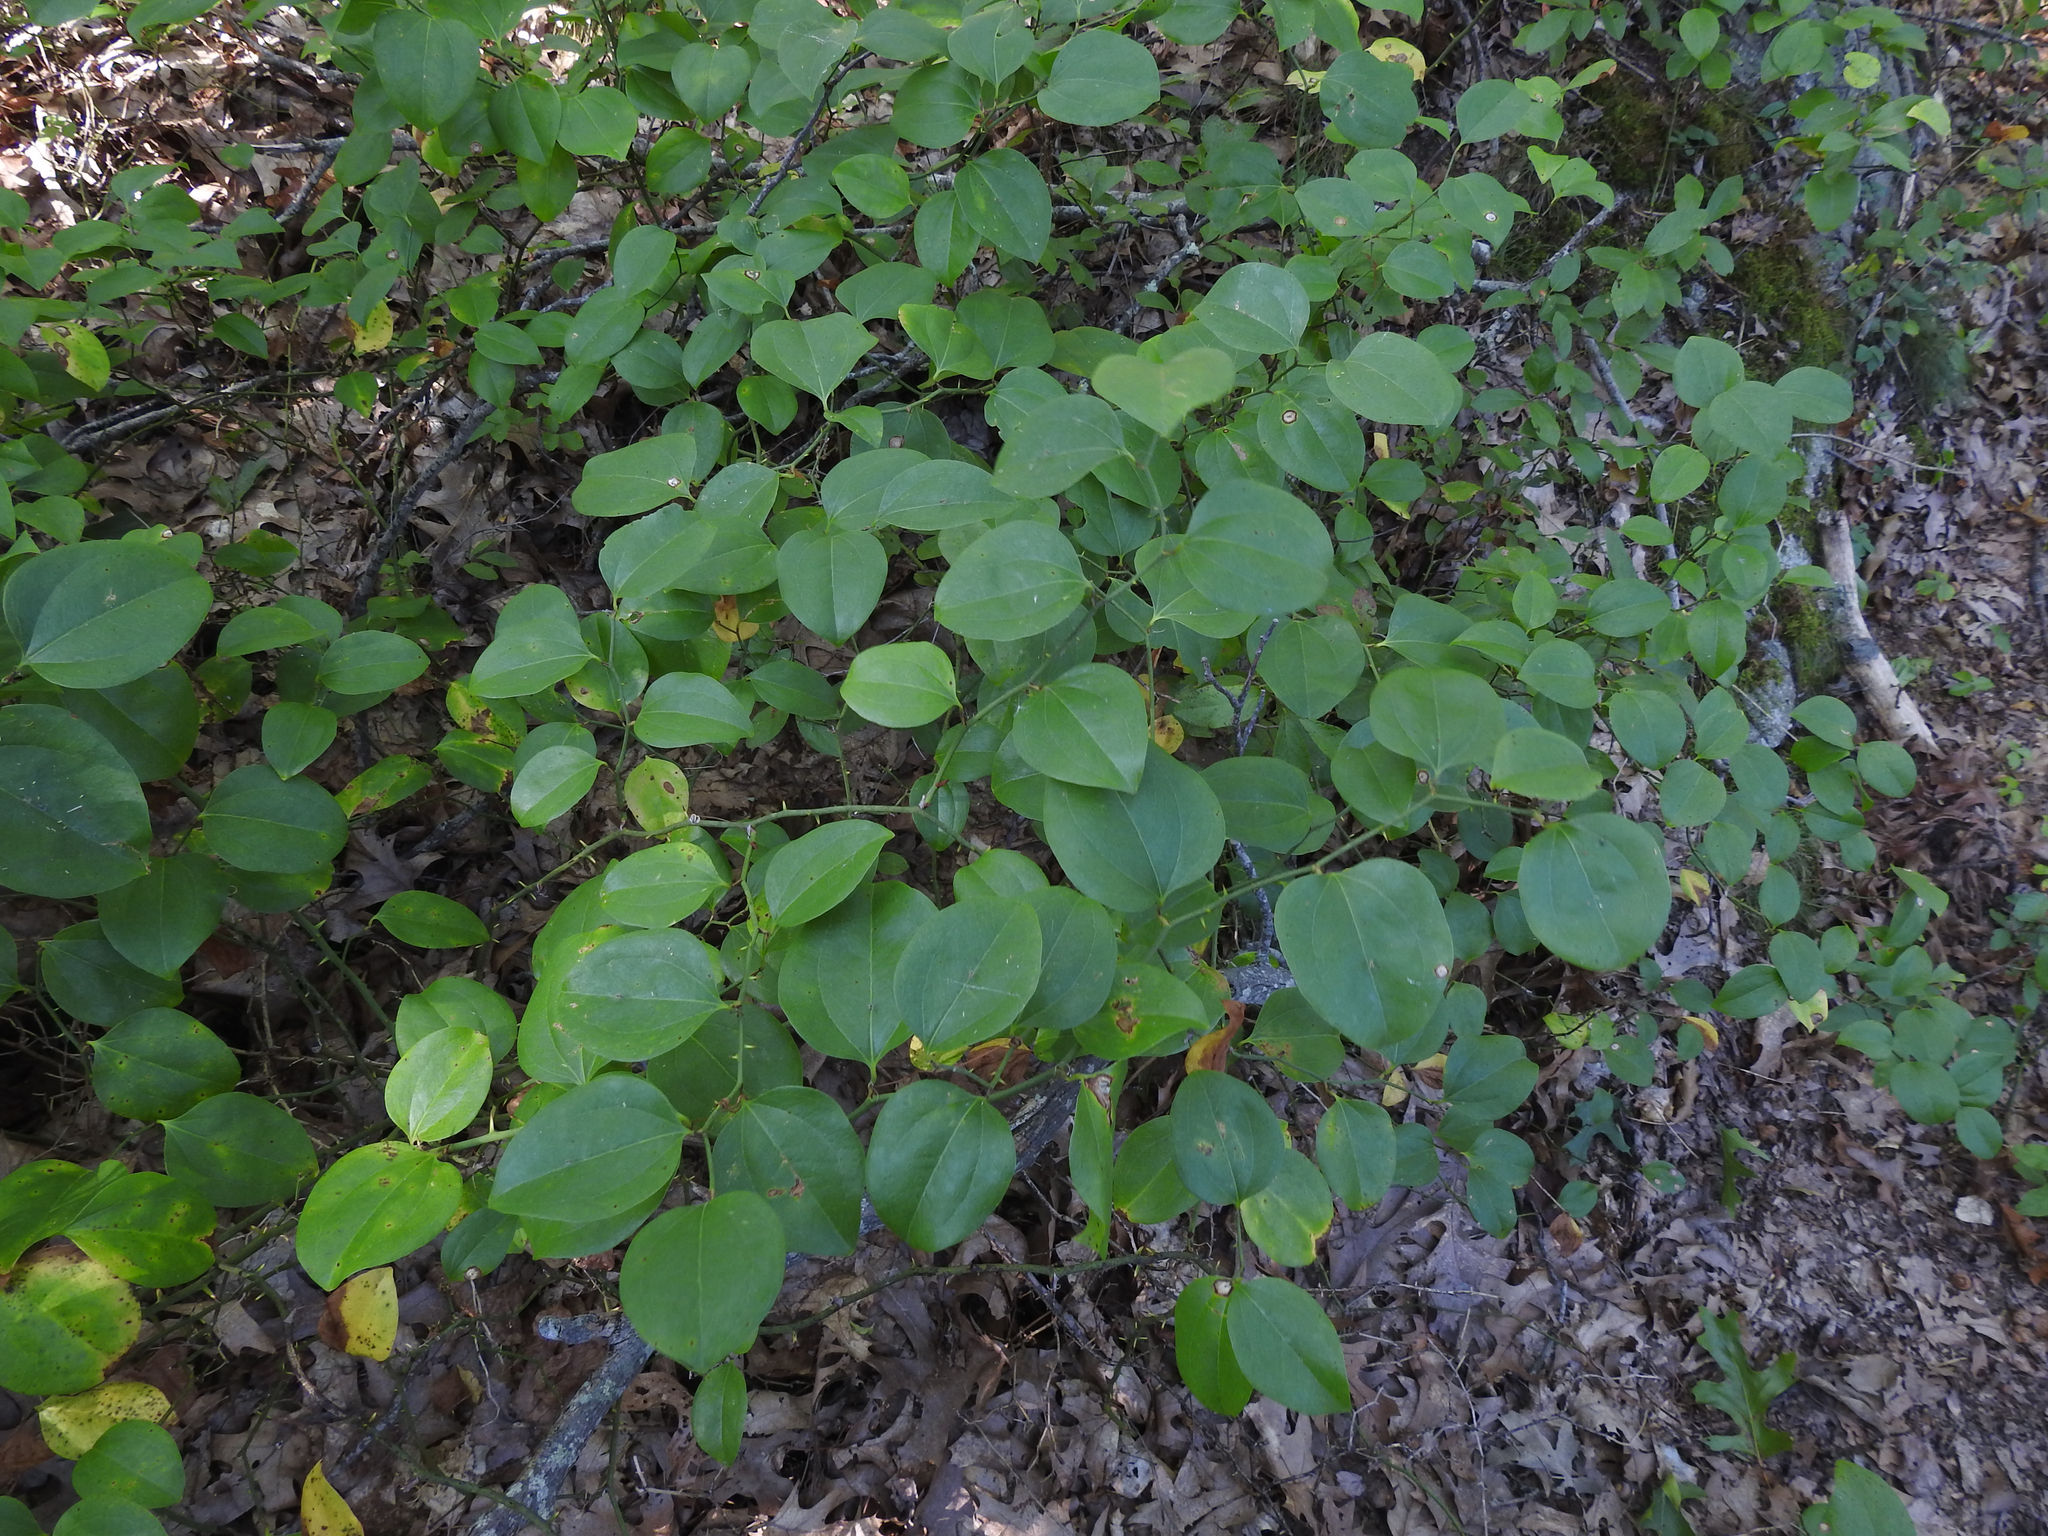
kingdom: Plantae
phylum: Tracheophyta
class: Liliopsida
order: Liliales
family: Smilacaceae
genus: Smilax
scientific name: Smilax rotundifolia
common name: Bullbriar
